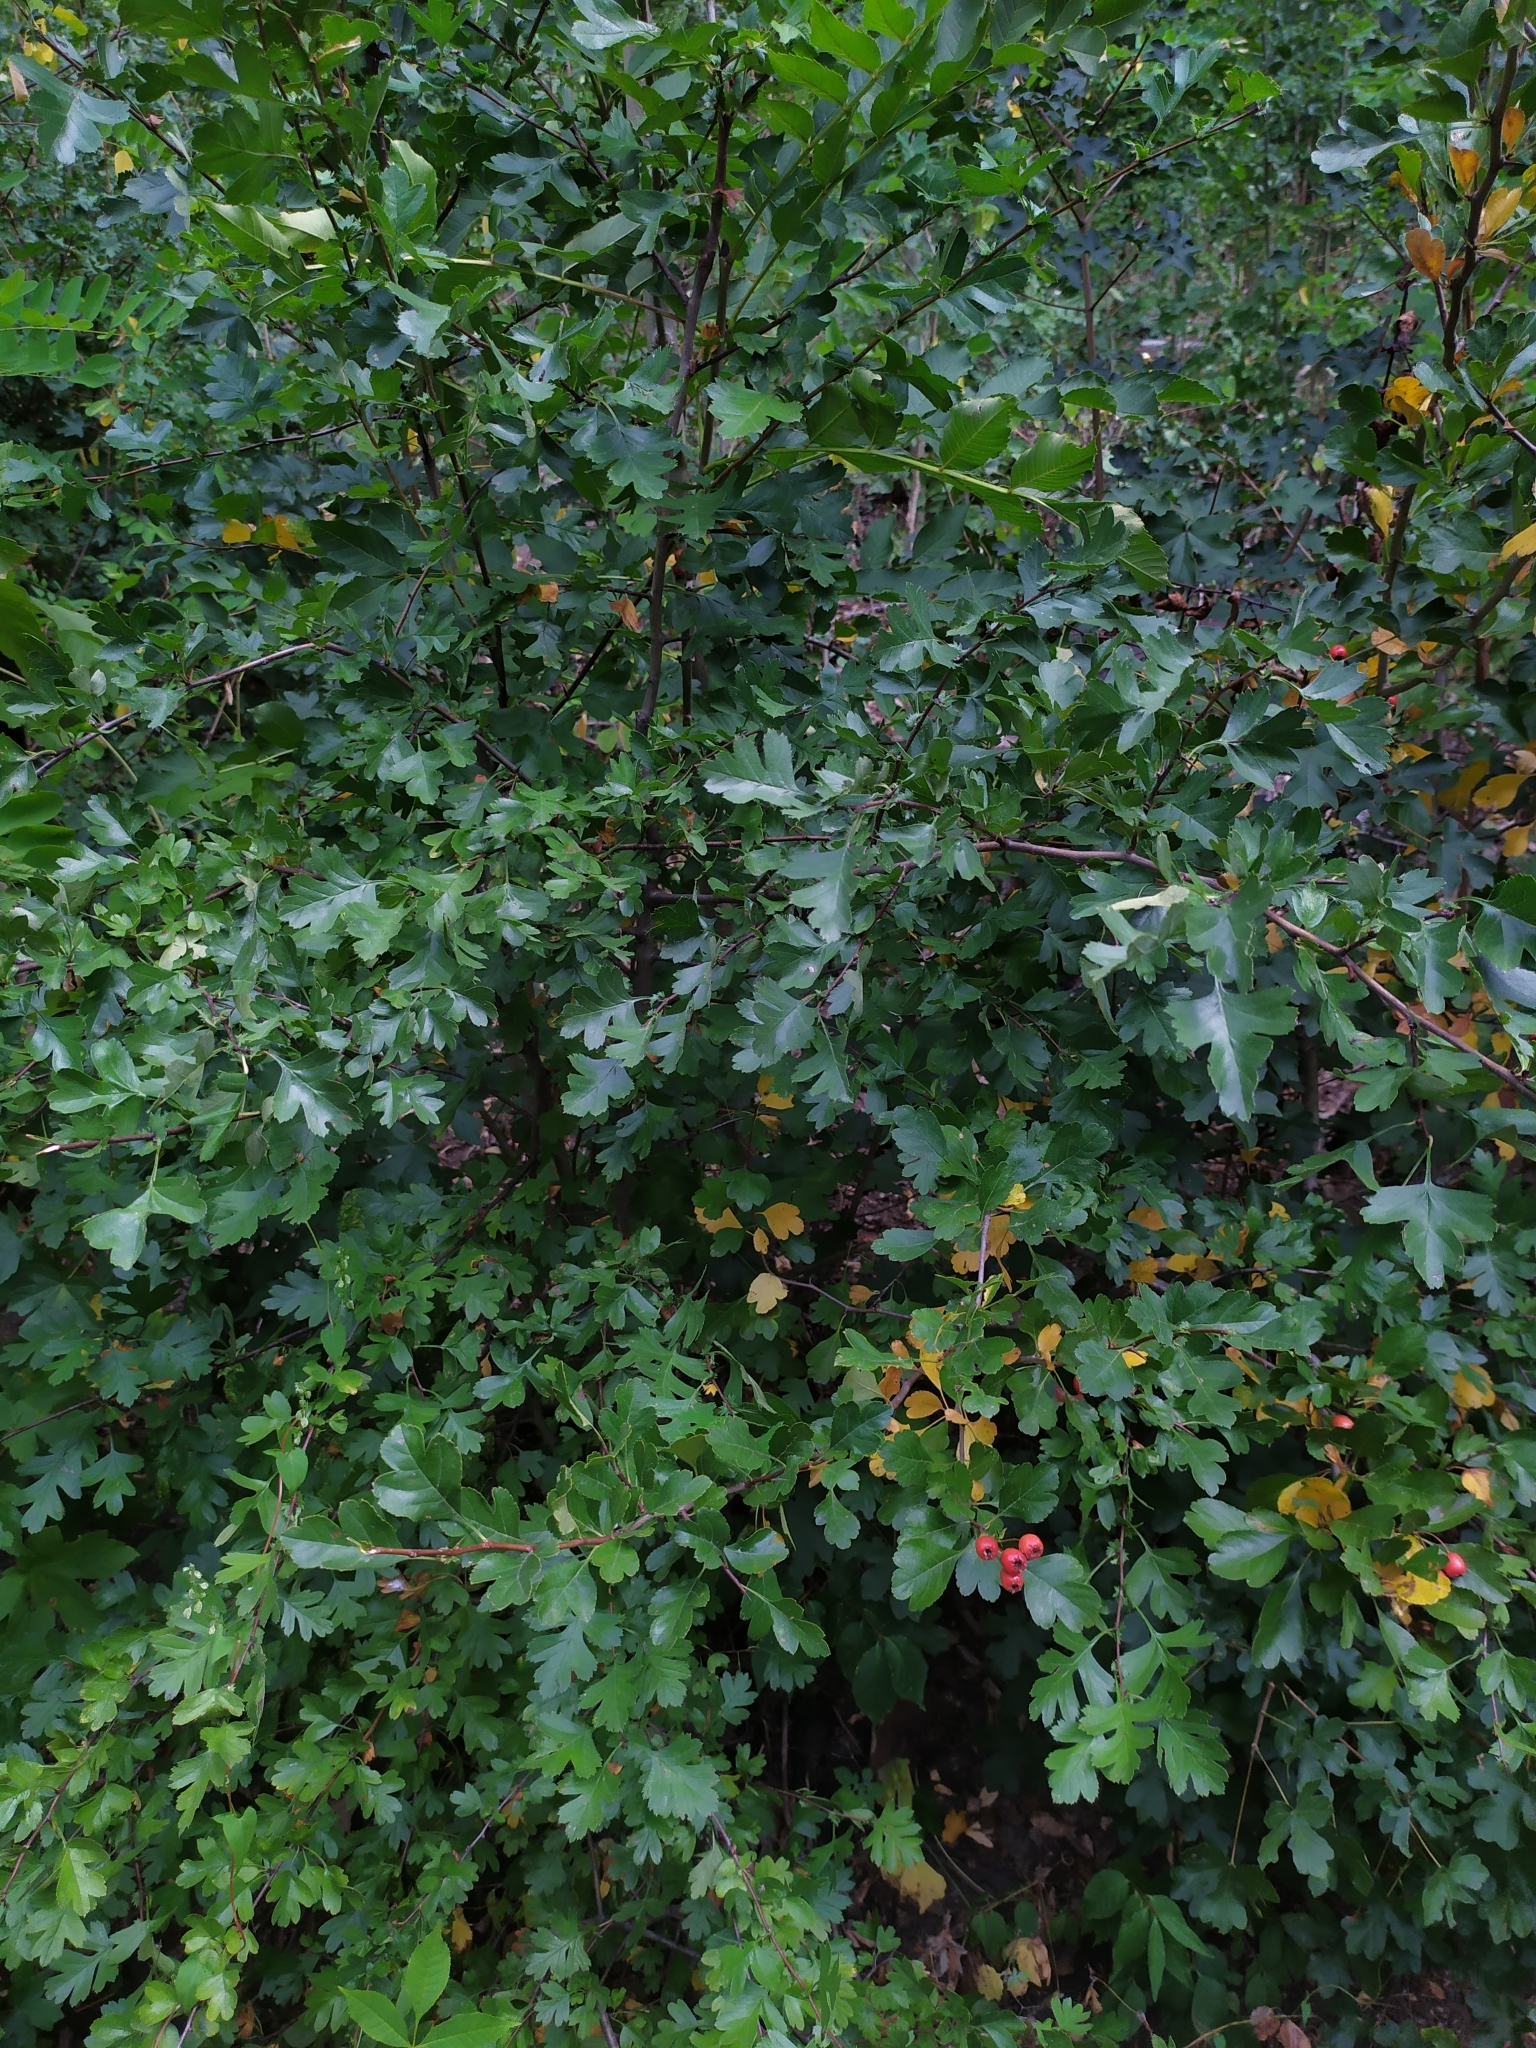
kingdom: Plantae
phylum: Tracheophyta
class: Magnoliopsida
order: Rosales
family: Rosaceae
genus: Crataegus
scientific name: Crataegus laevigata
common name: Midland hawthorn
